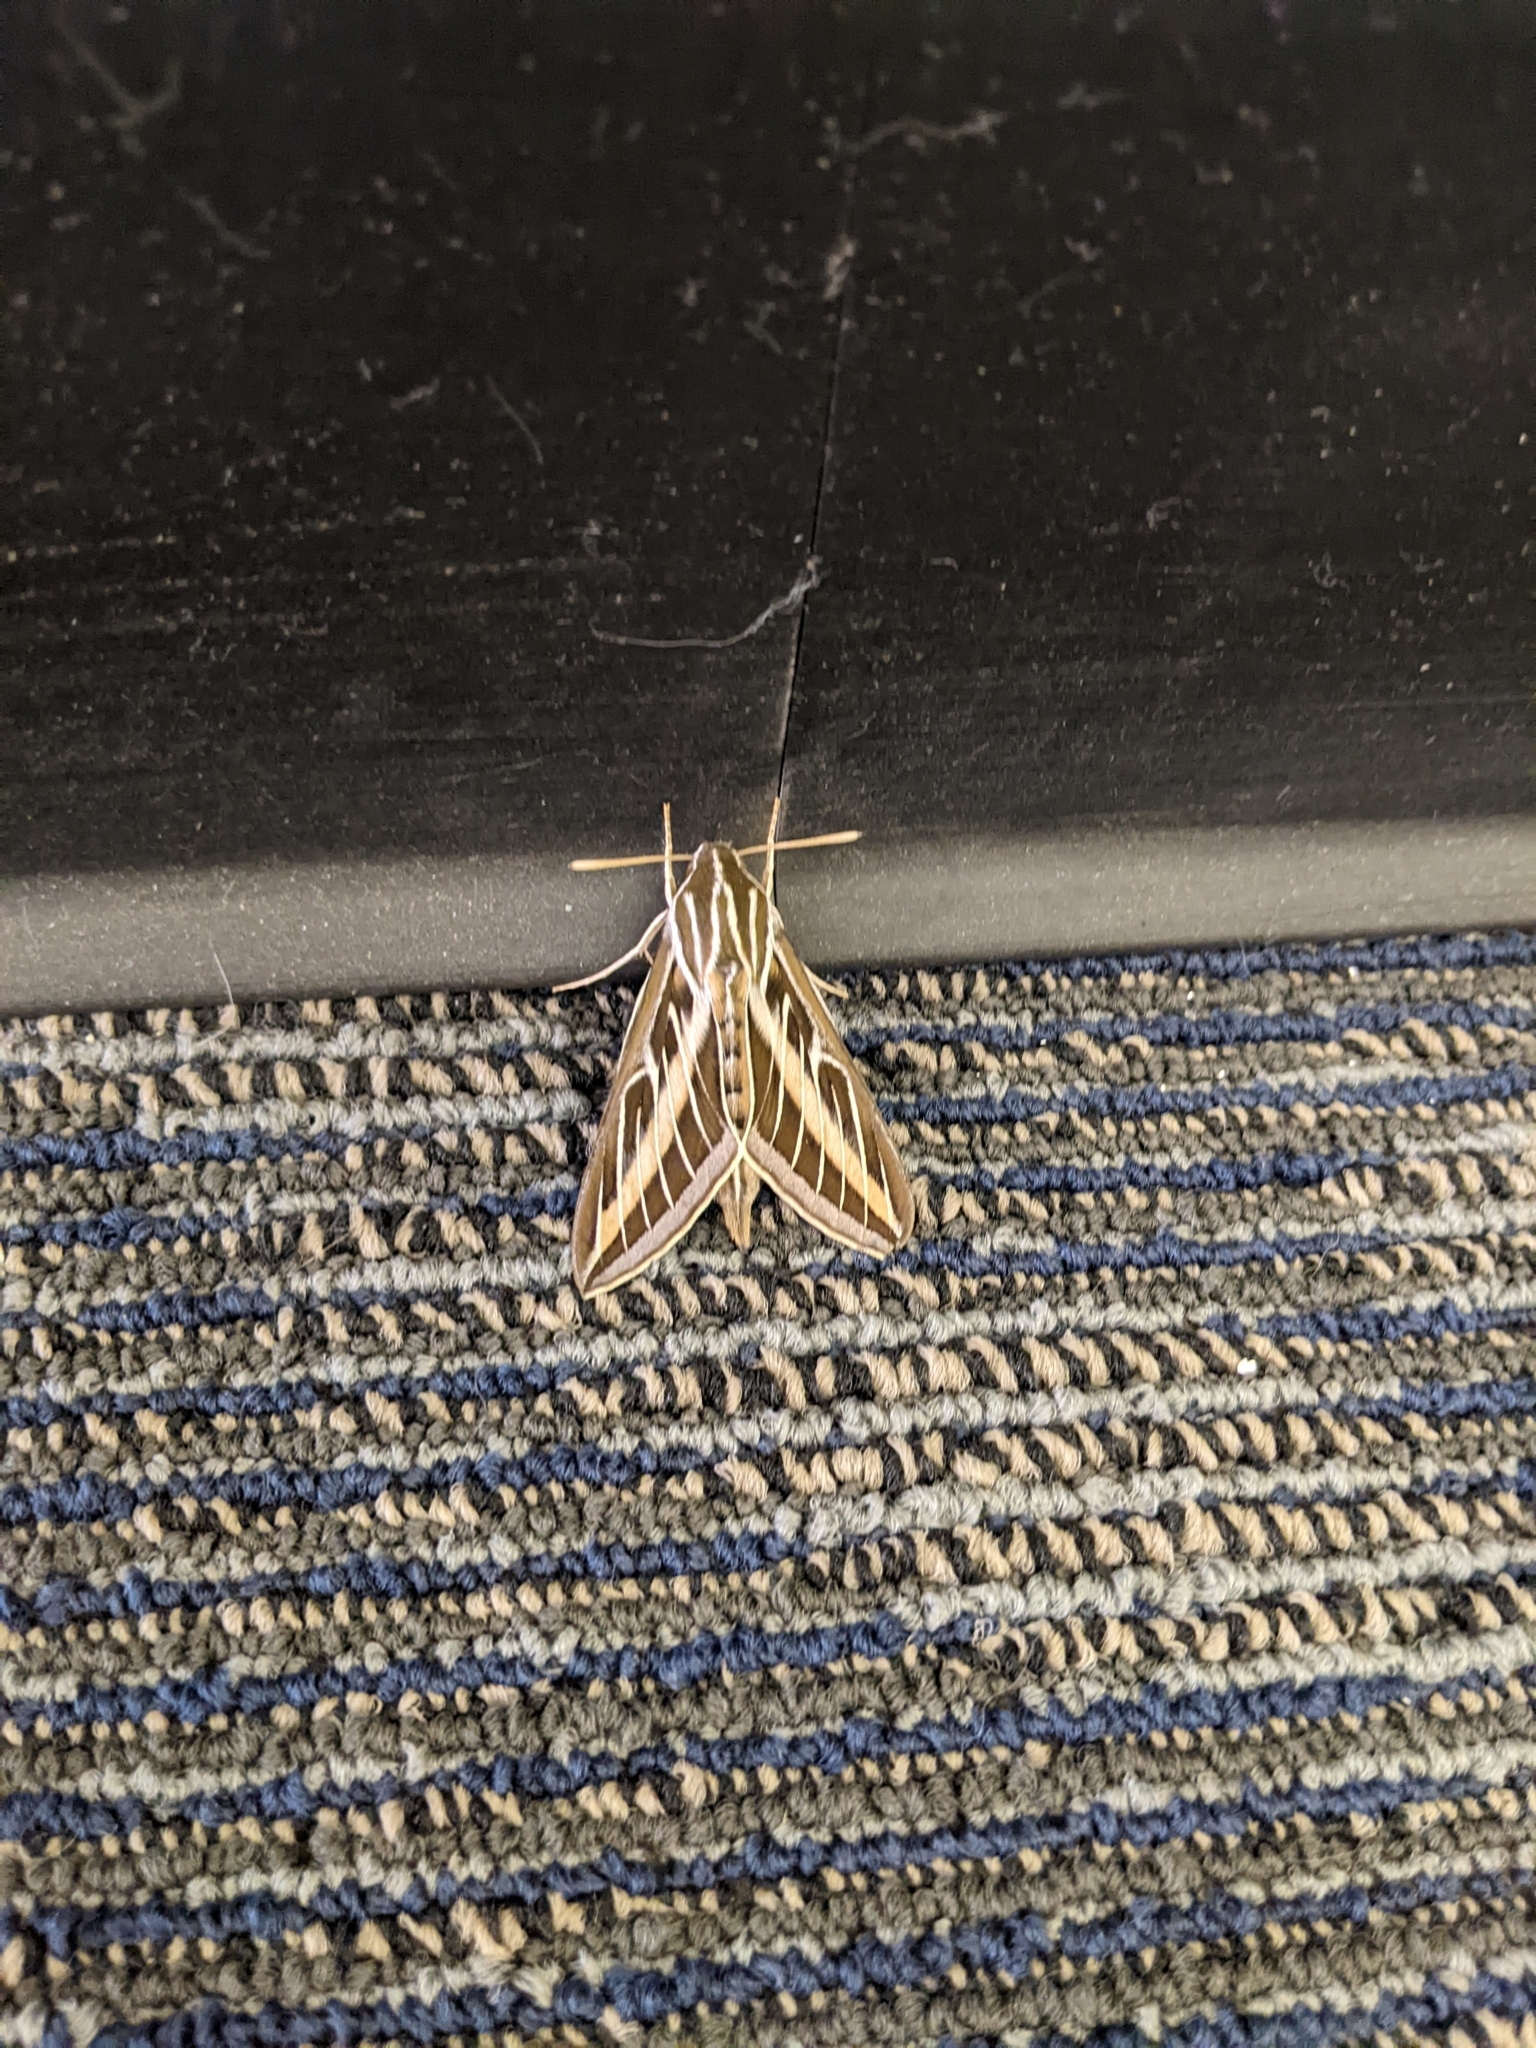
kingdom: Animalia
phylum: Arthropoda
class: Insecta
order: Lepidoptera
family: Sphingidae
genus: Hyles
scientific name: Hyles lineata
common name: White-lined sphinx
